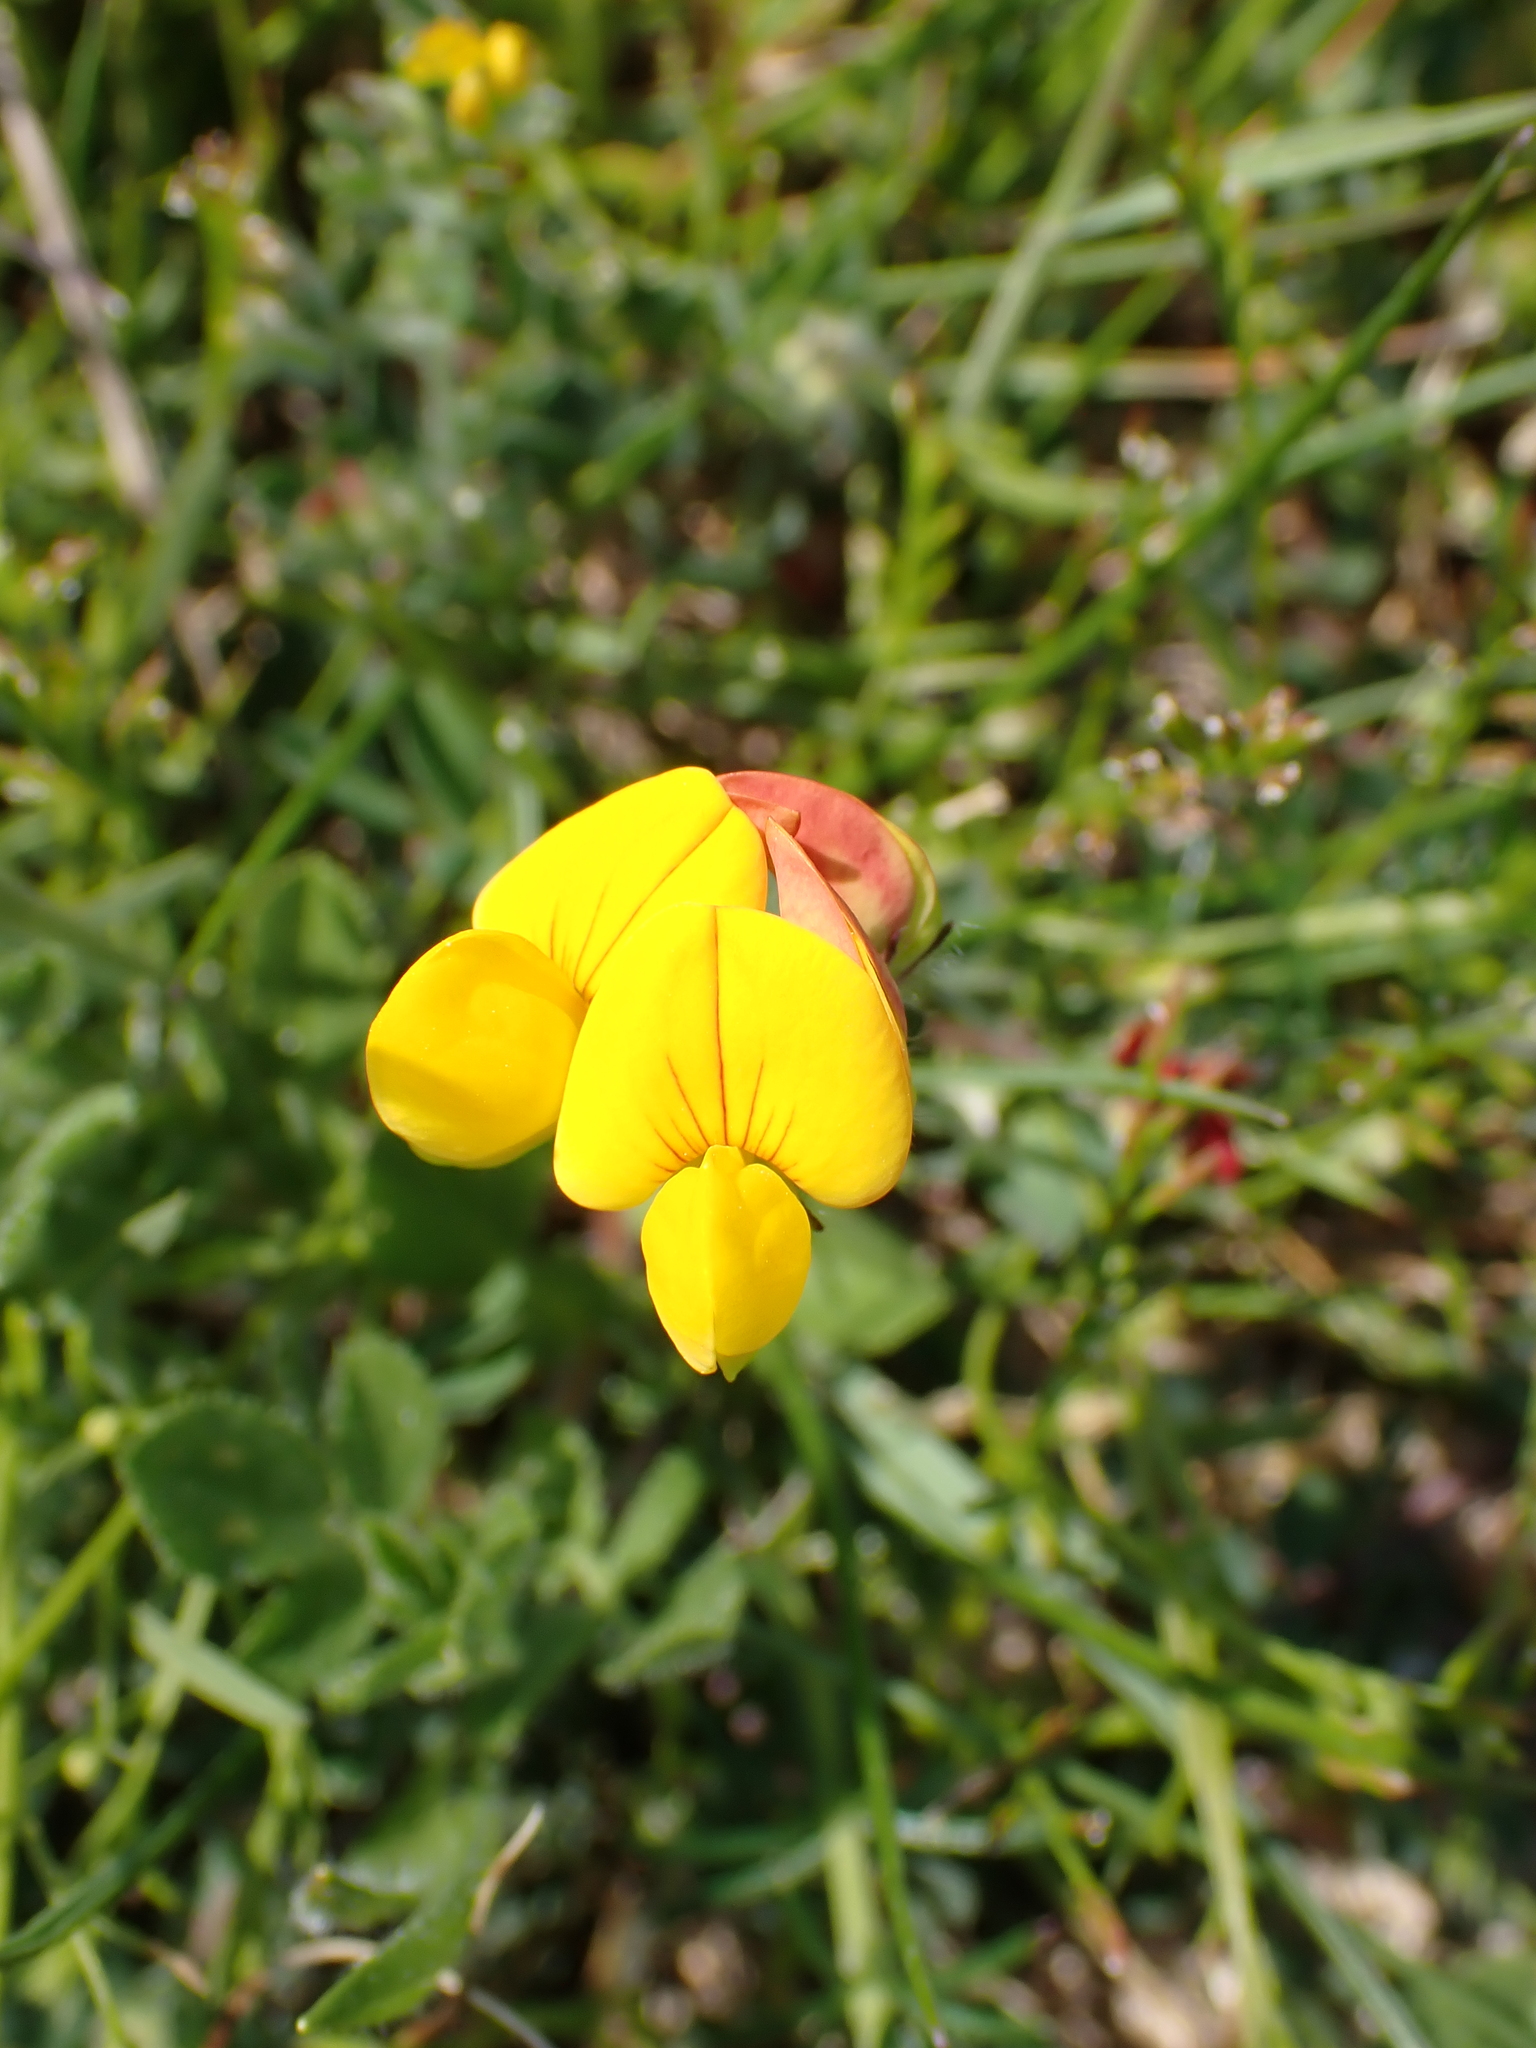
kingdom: Plantae
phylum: Tracheophyta
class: Magnoliopsida
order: Fabales
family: Fabaceae
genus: Lotus
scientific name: Lotus corniculatus
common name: Common bird's-foot-trefoil
